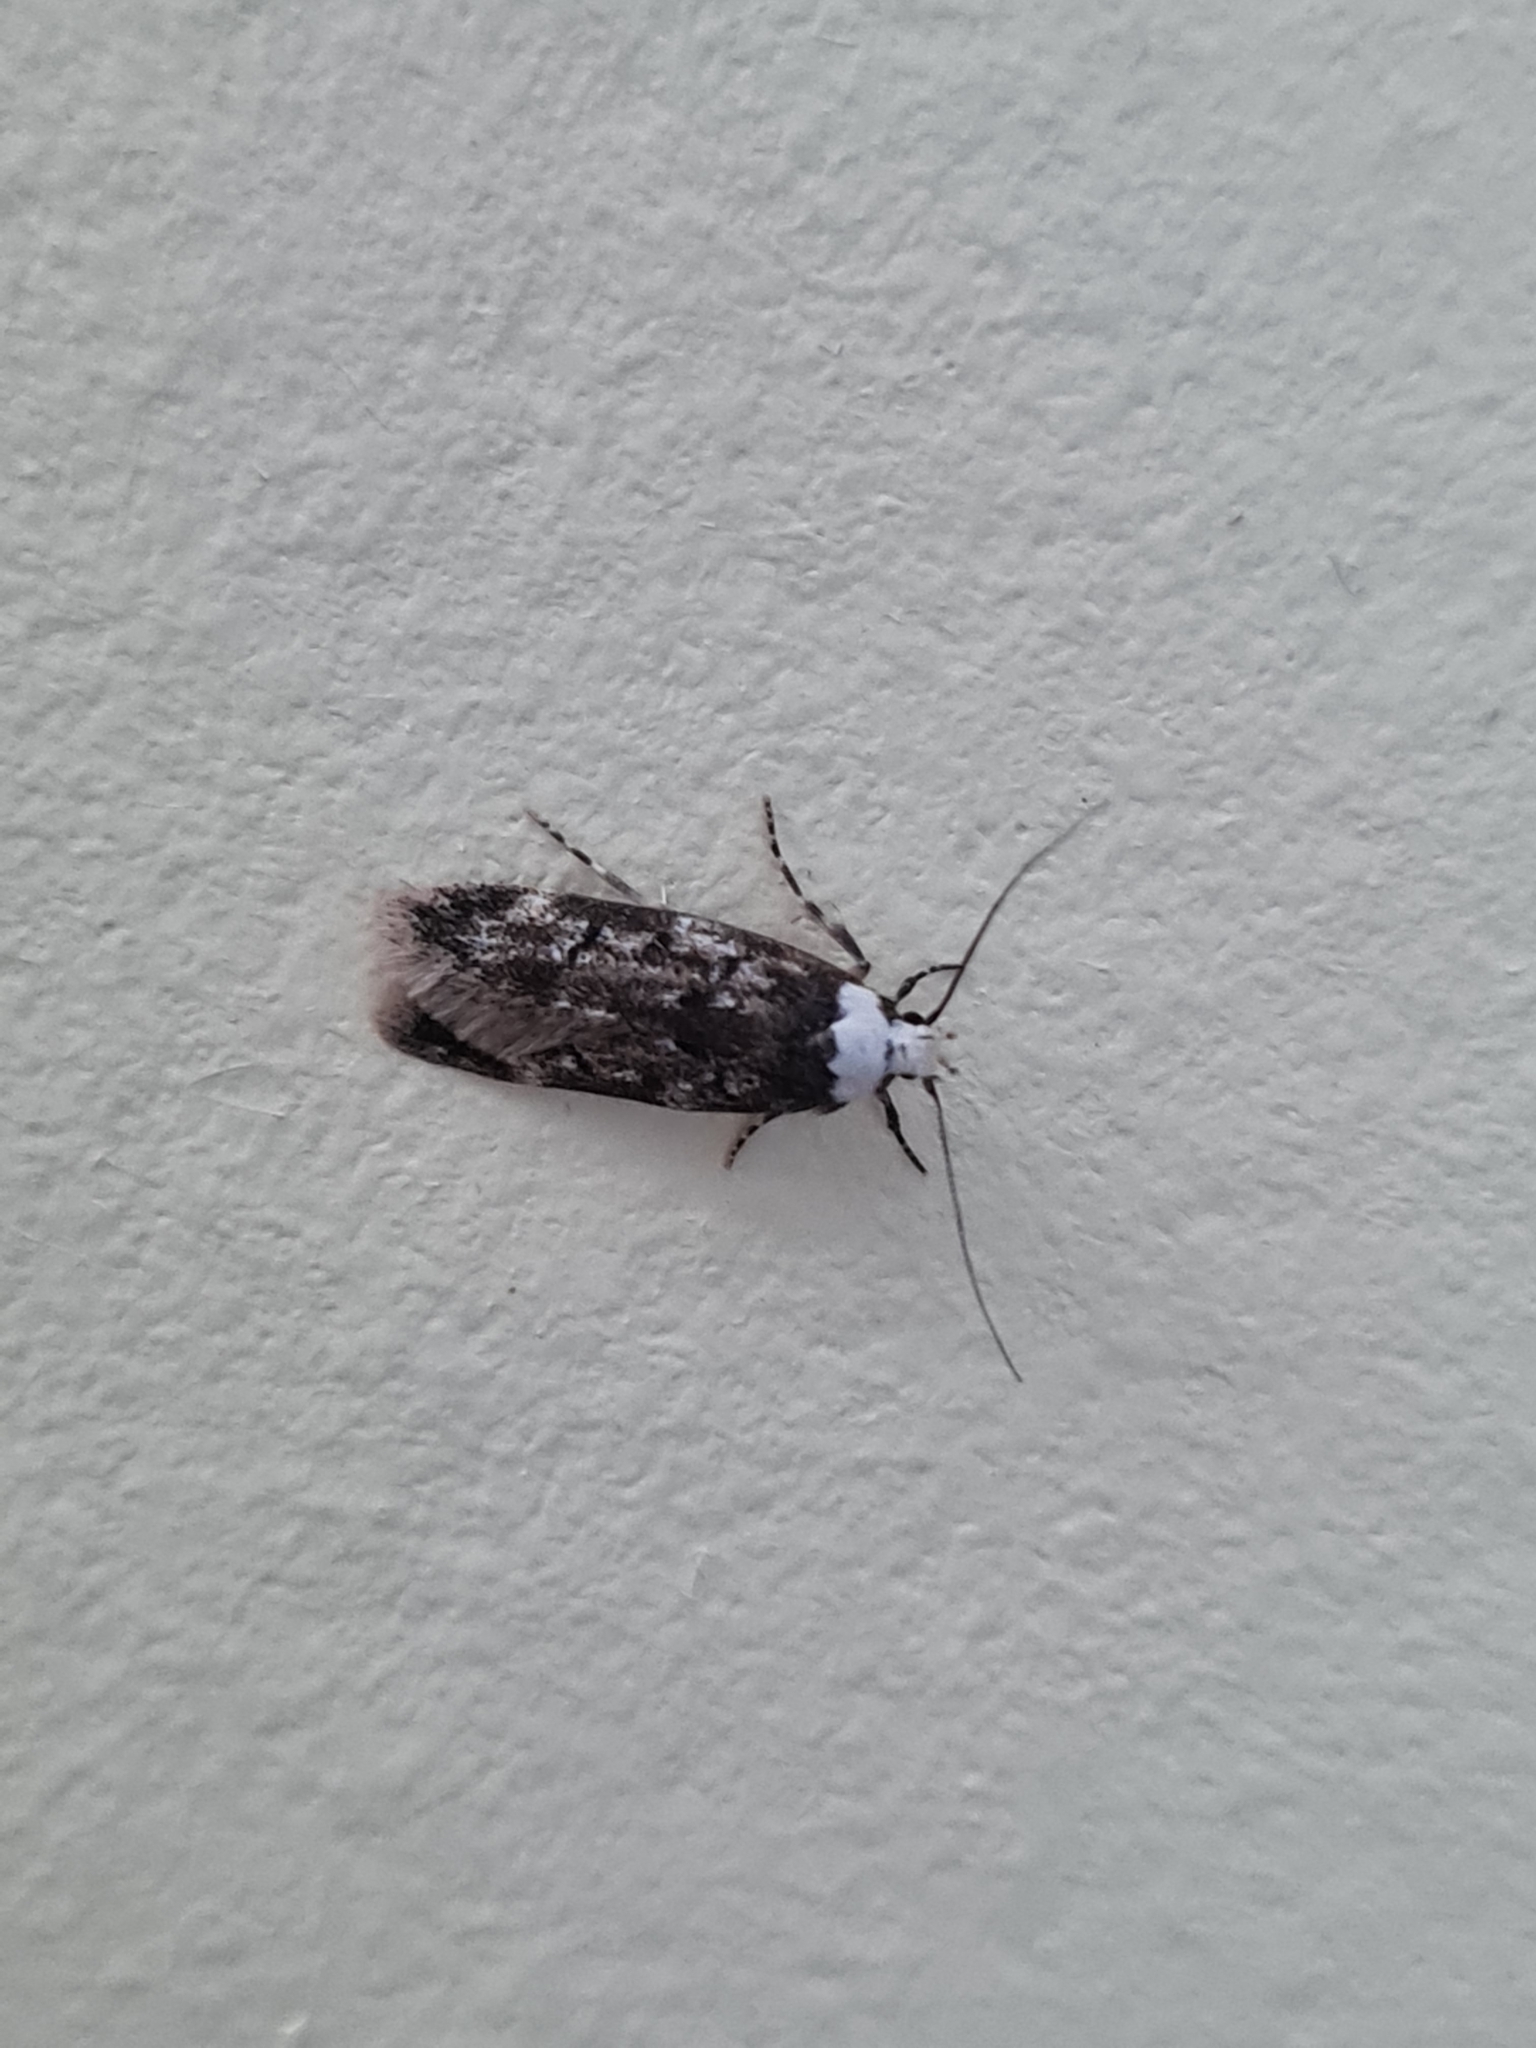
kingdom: Animalia
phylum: Arthropoda
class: Insecta
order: Lepidoptera
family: Oecophoridae
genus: Endrosis
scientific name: Endrosis sarcitrella
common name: White-shouldered house moth
